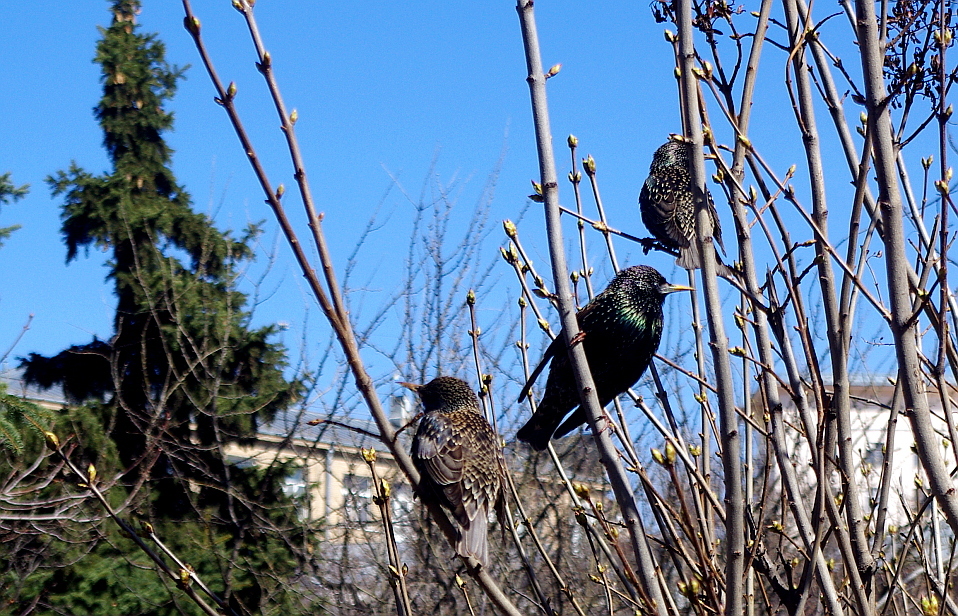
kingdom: Animalia
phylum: Chordata
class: Aves
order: Passeriformes
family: Sturnidae
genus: Sturnus
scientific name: Sturnus vulgaris
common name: Common starling
